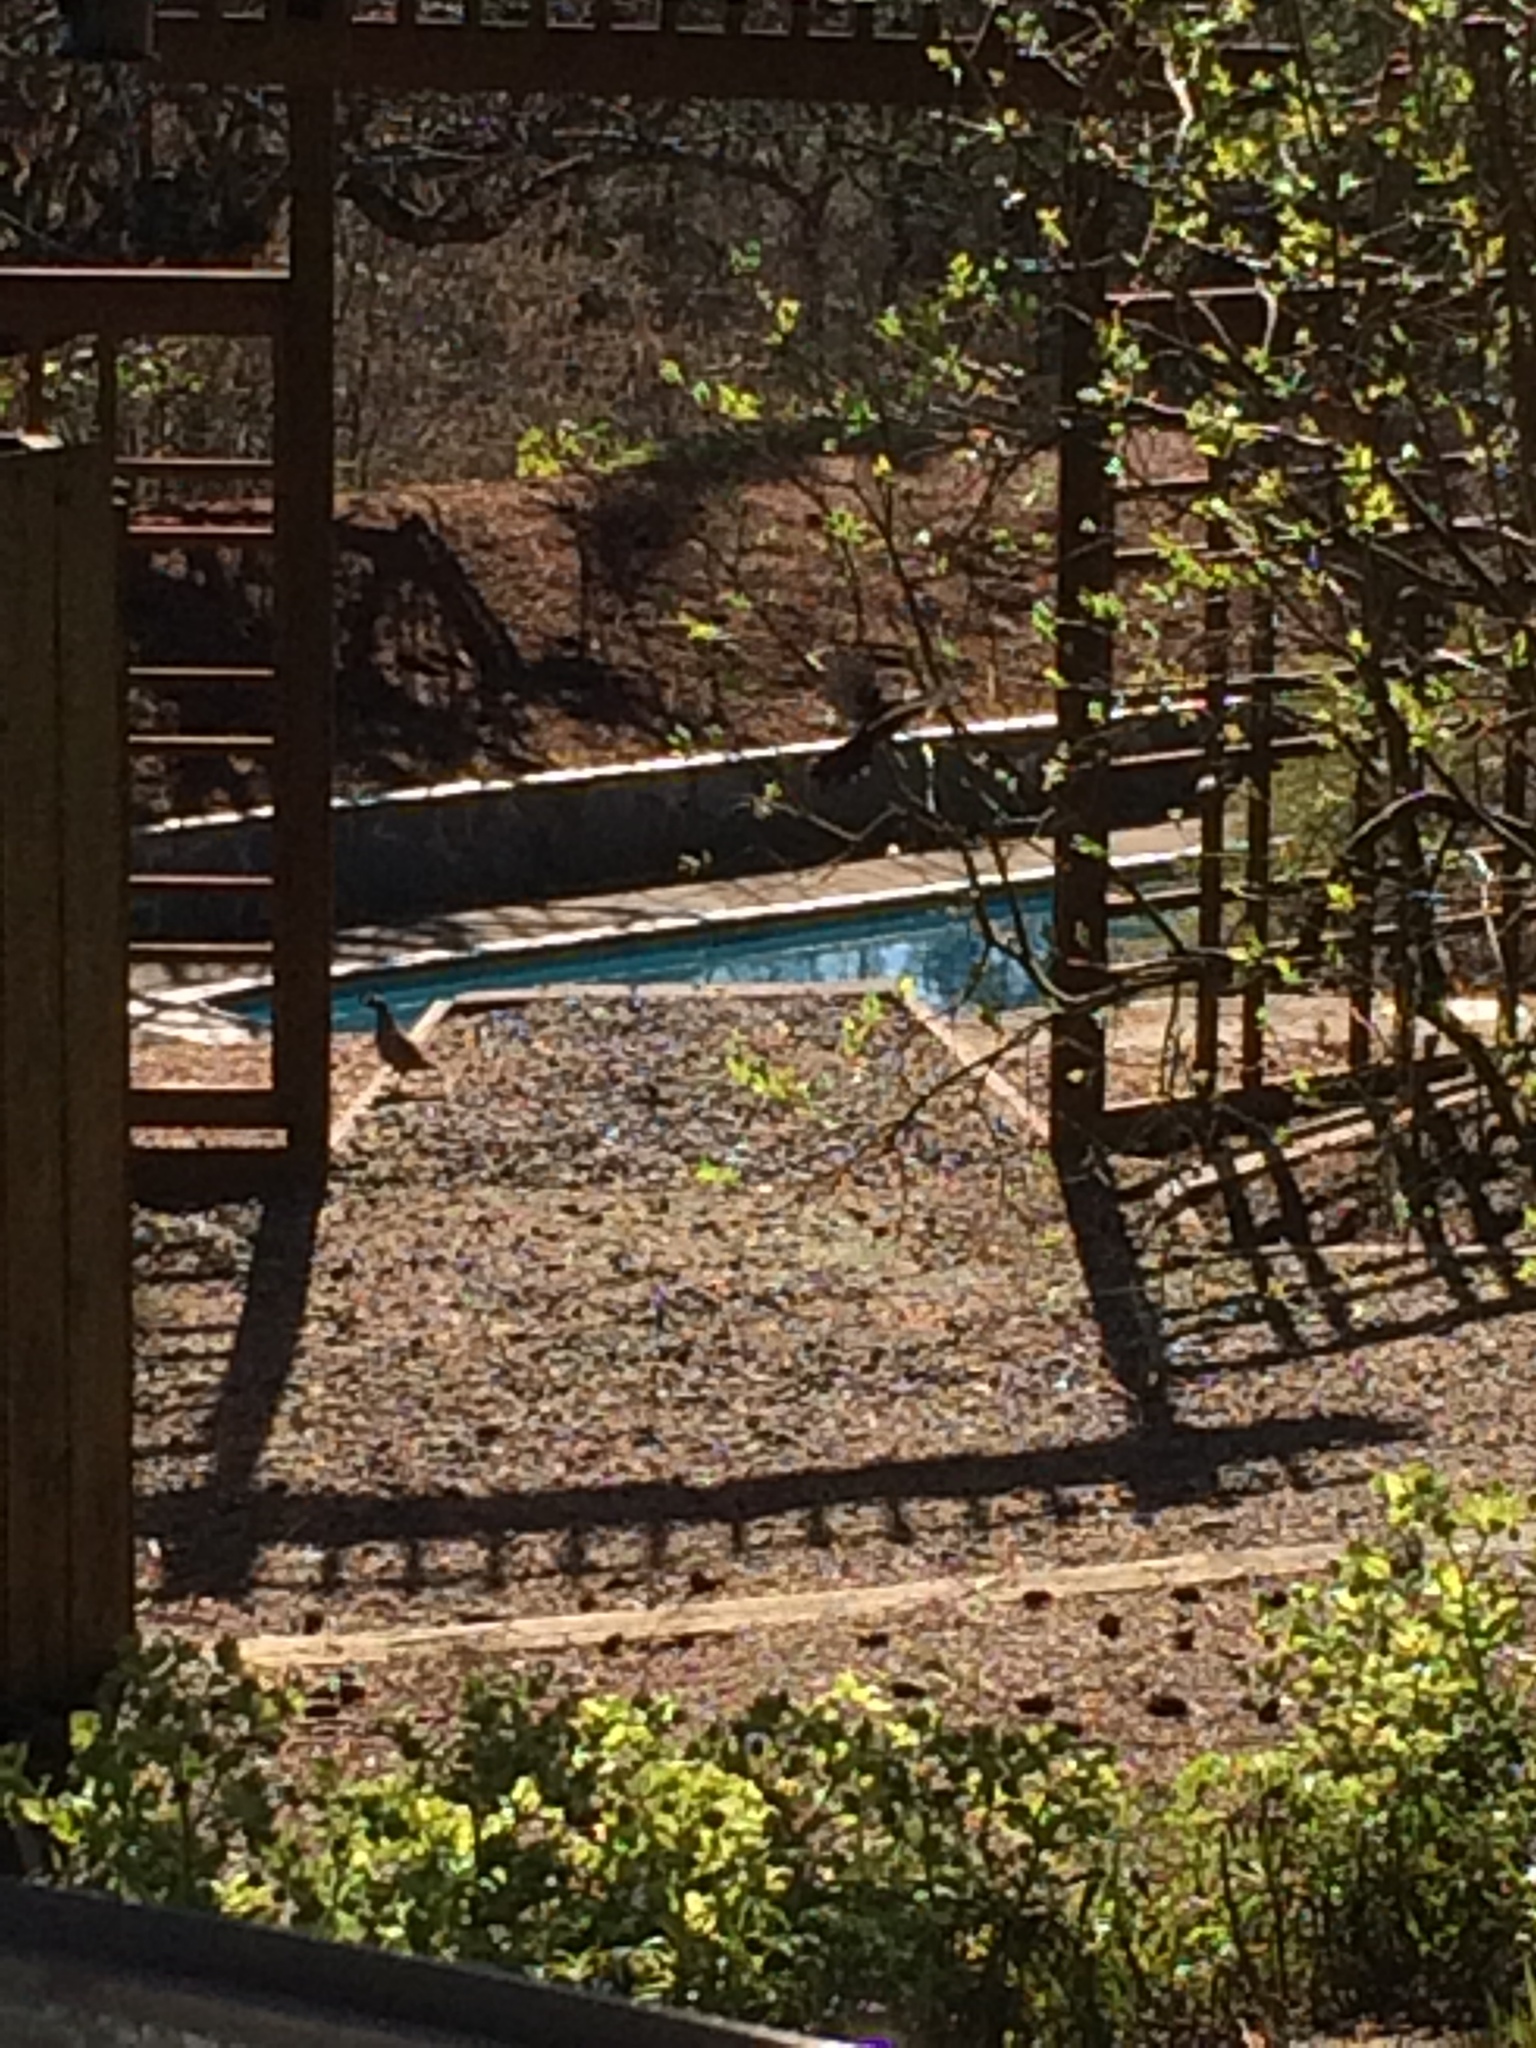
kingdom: Animalia
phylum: Chordata
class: Aves
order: Galliformes
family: Odontophoridae
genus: Callipepla
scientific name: Callipepla californica
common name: California quail
